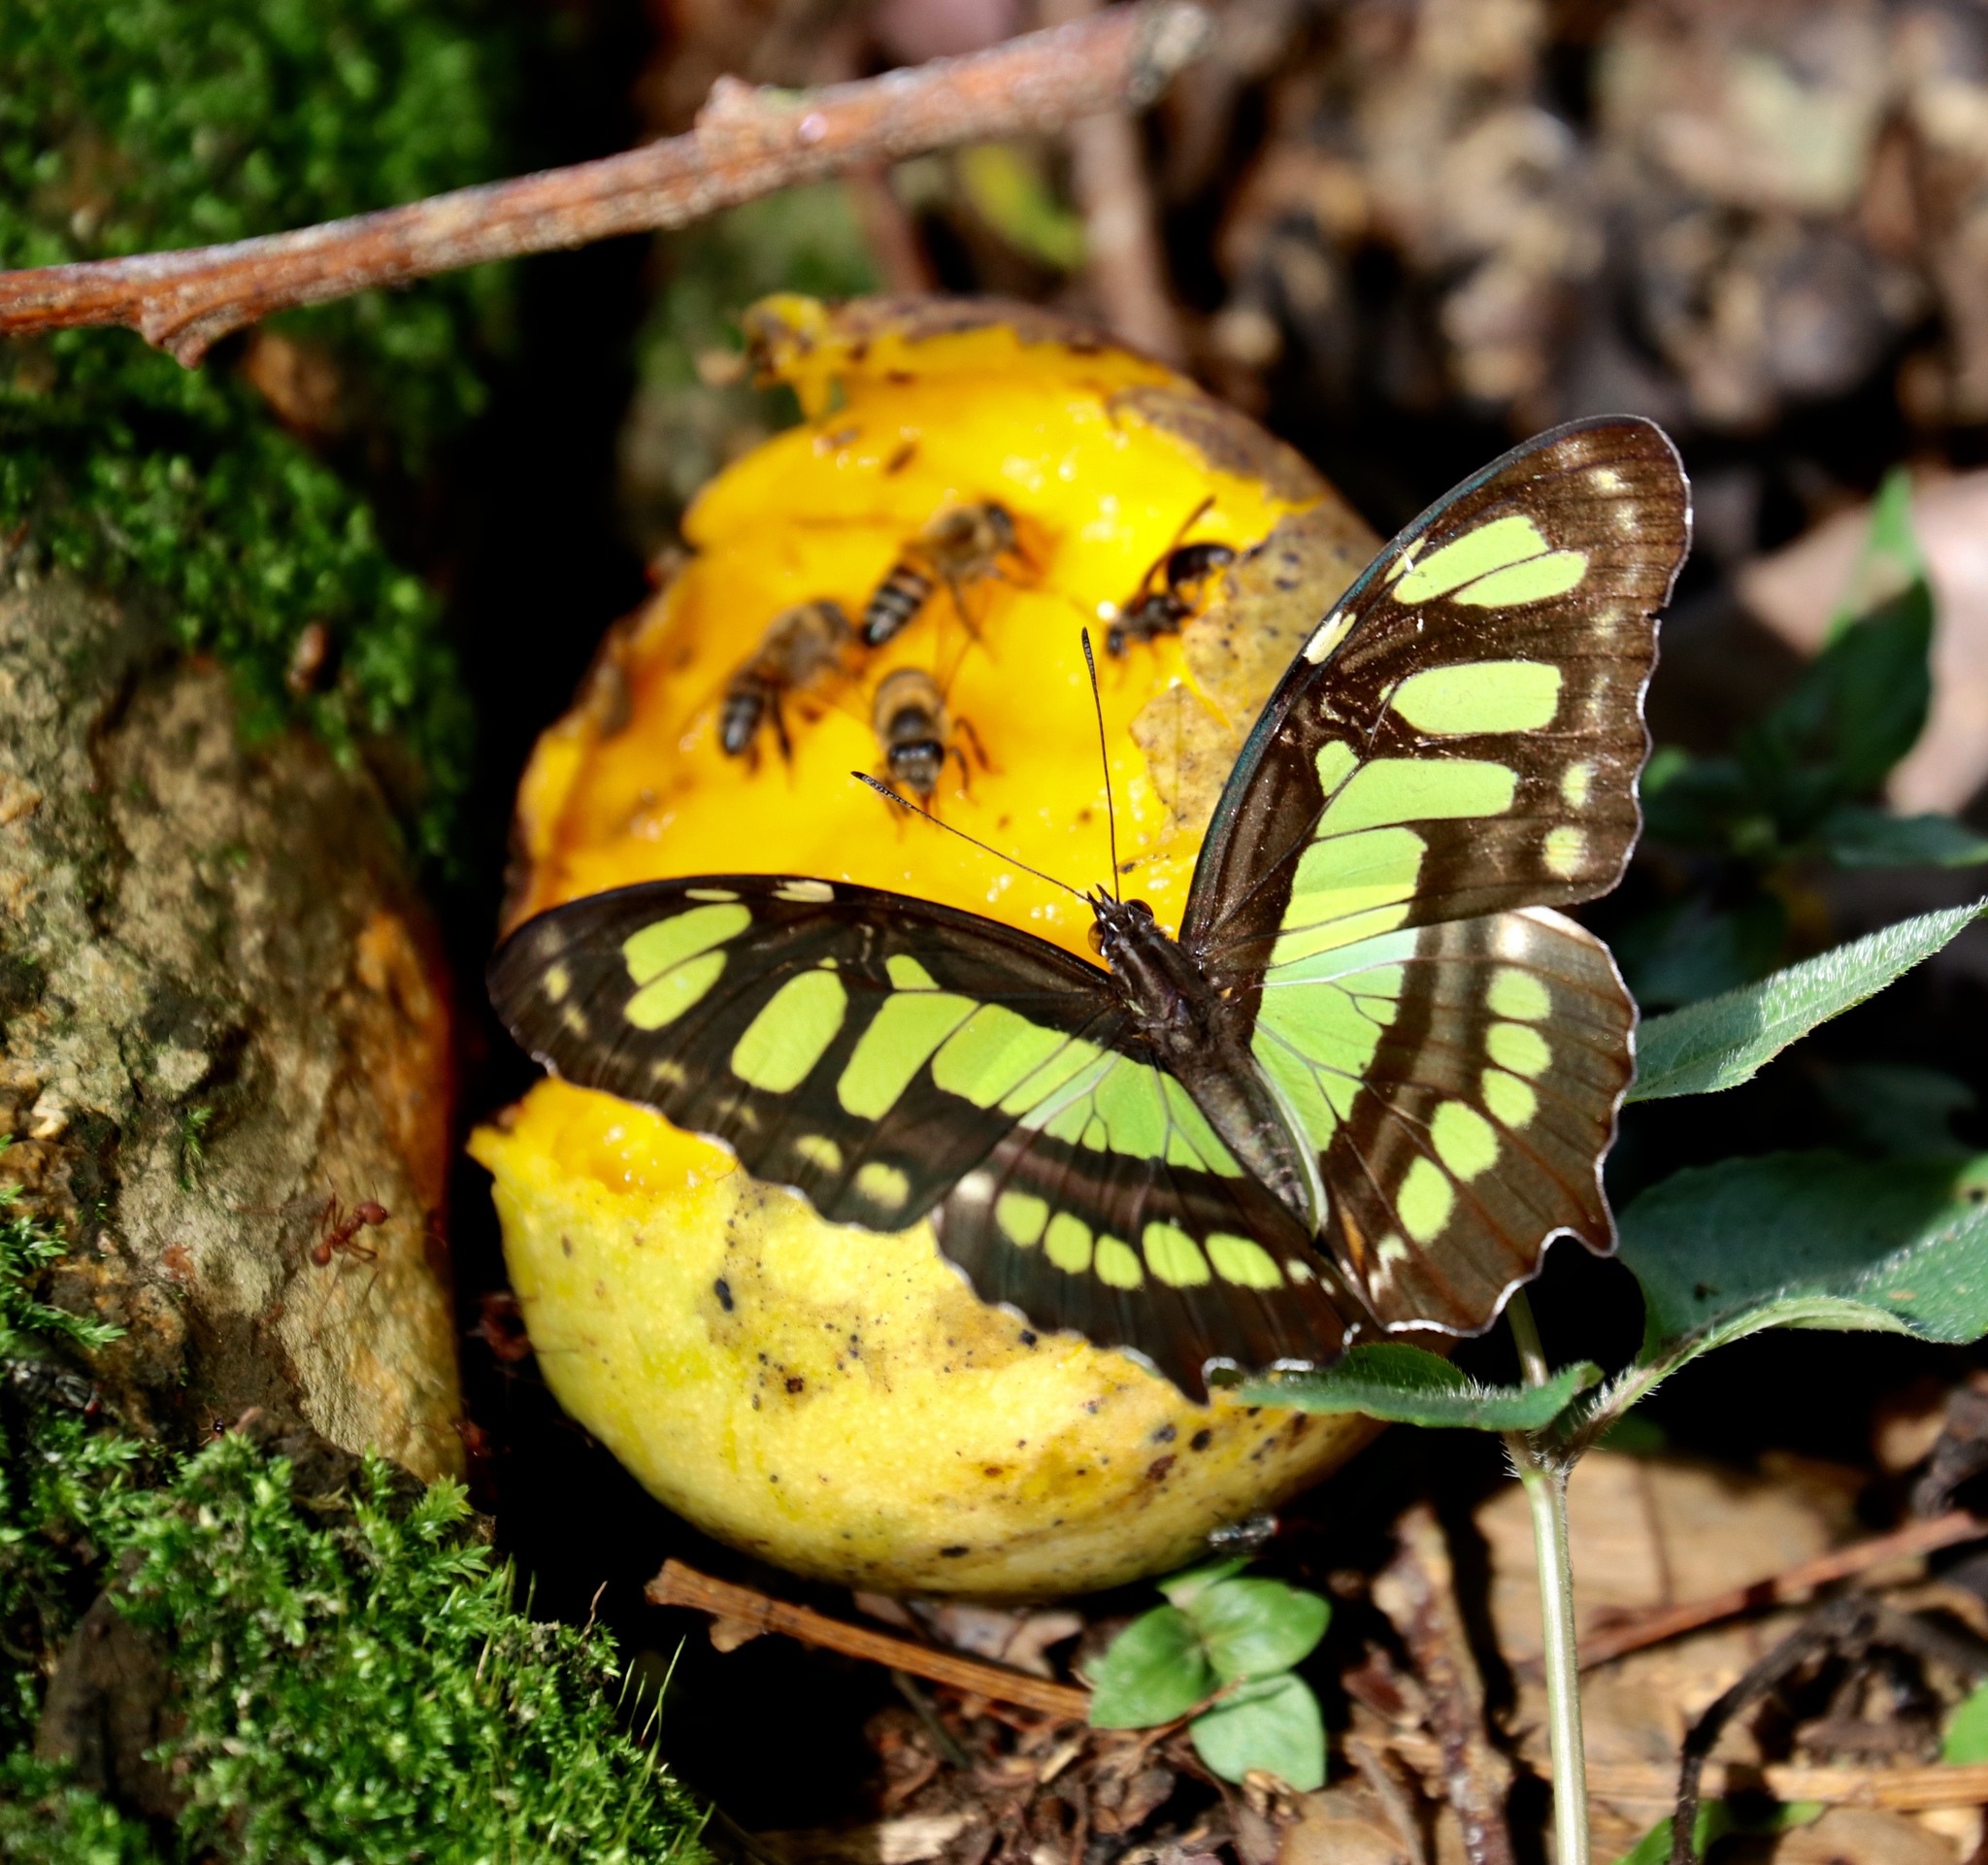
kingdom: Animalia
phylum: Arthropoda
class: Insecta
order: Lepidoptera
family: Nymphalidae
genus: Siproeta
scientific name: Siproeta stelenes
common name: Malachite
